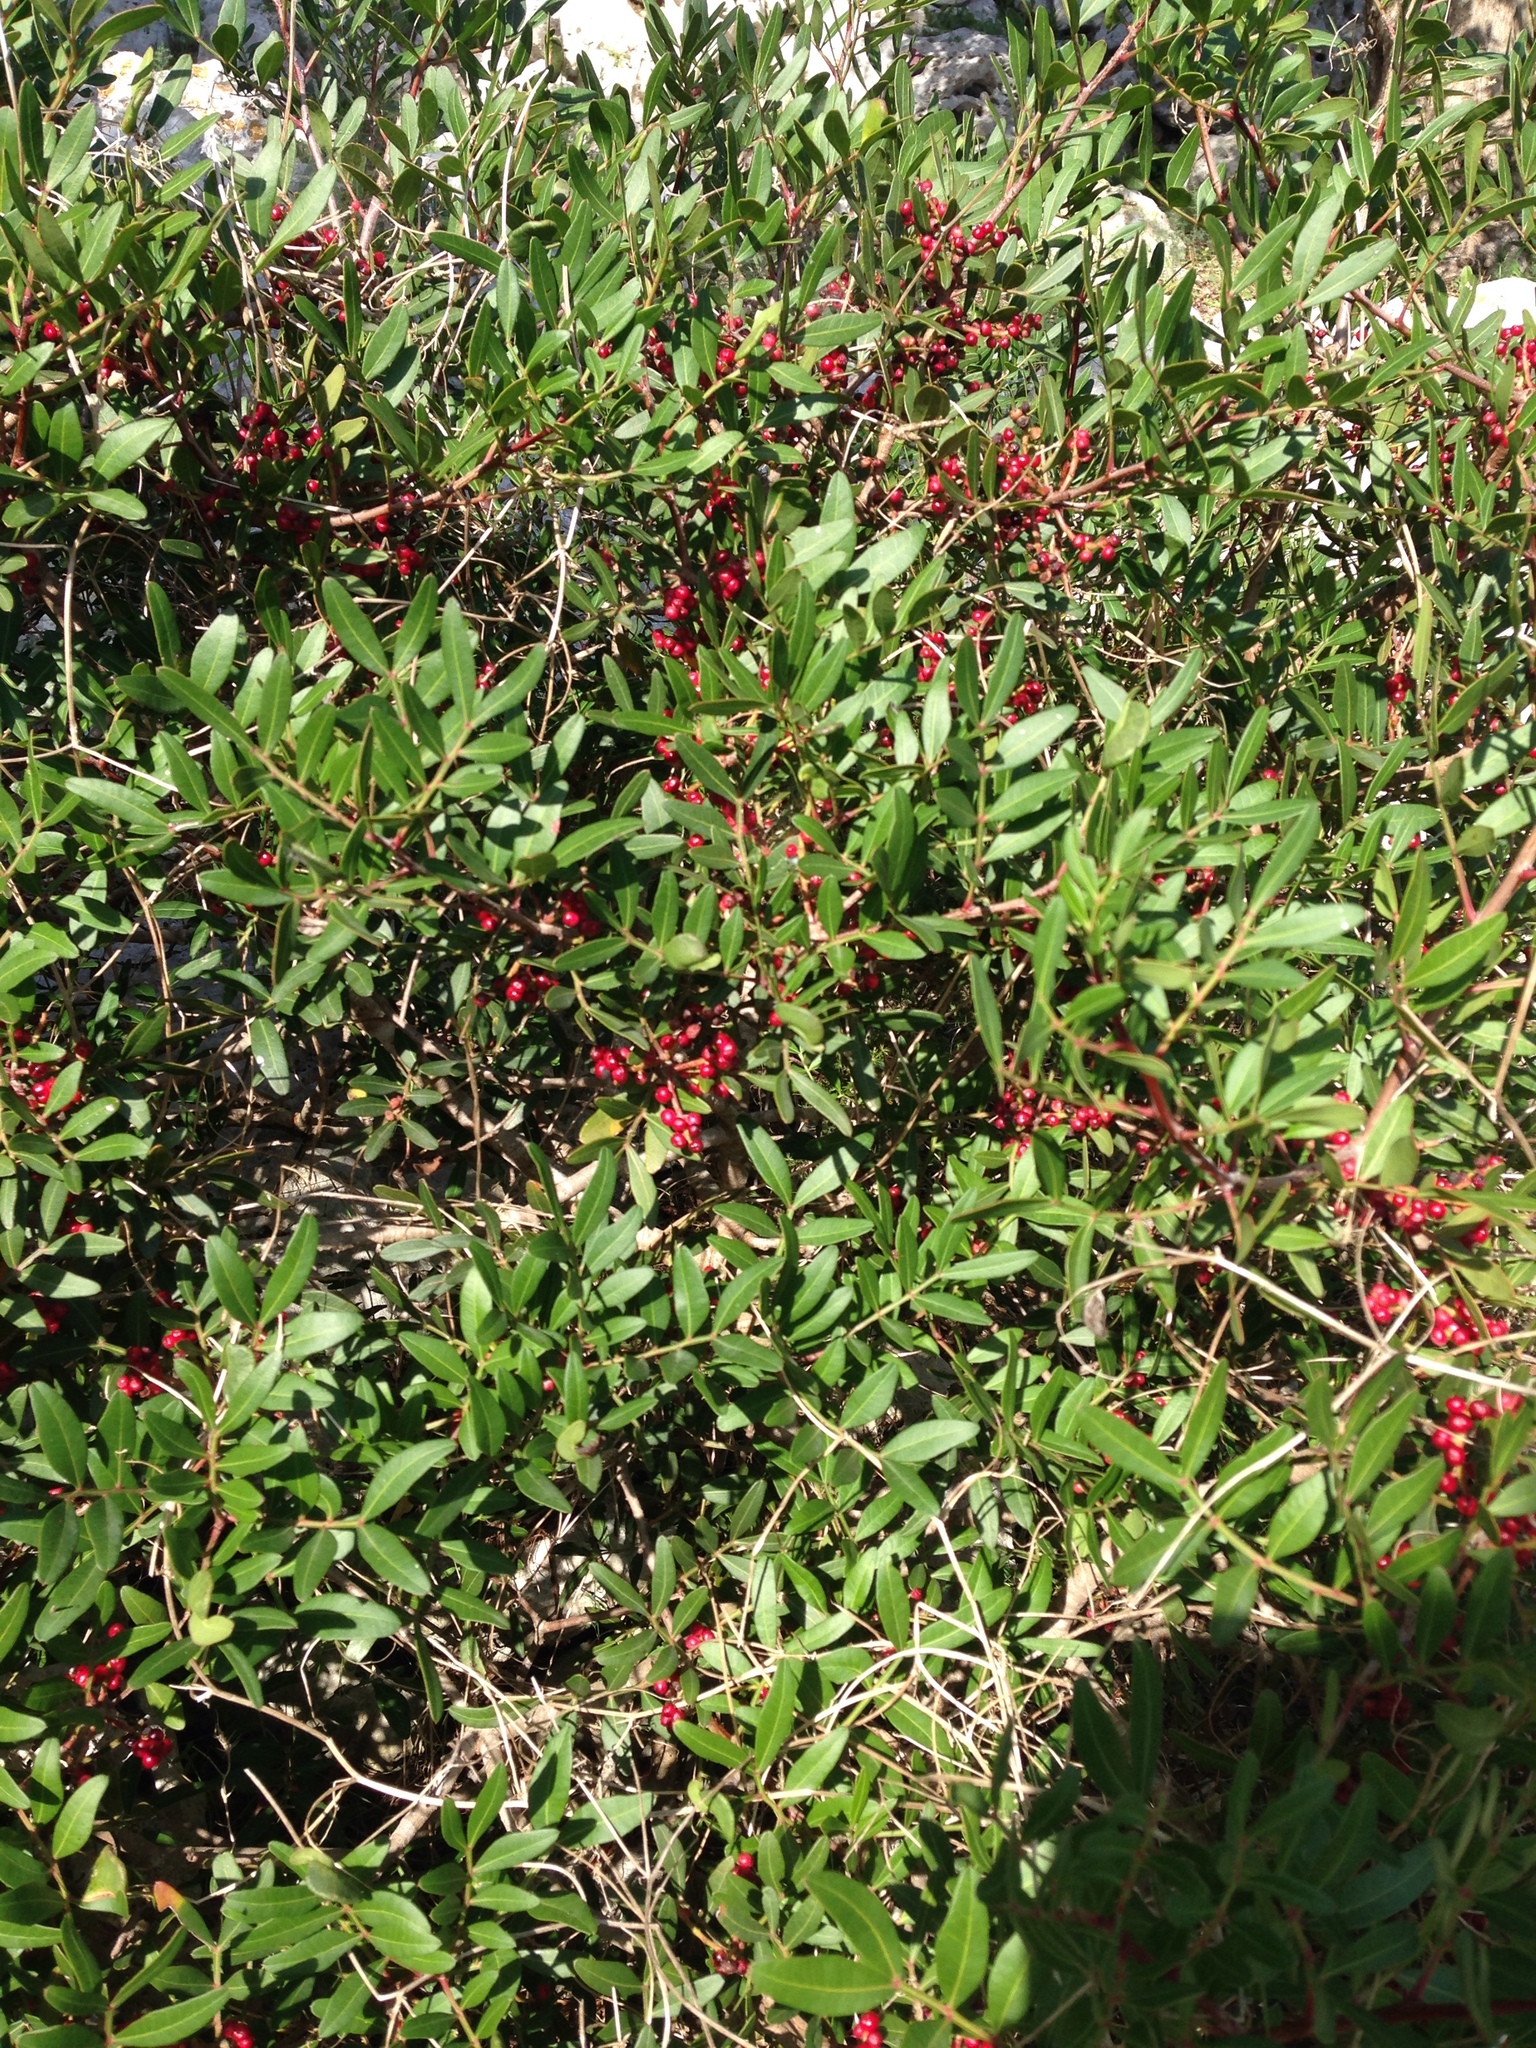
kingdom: Plantae
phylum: Tracheophyta
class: Magnoliopsida
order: Sapindales
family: Anacardiaceae
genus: Pistacia
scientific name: Pistacia lentiscus
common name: Lentisk
